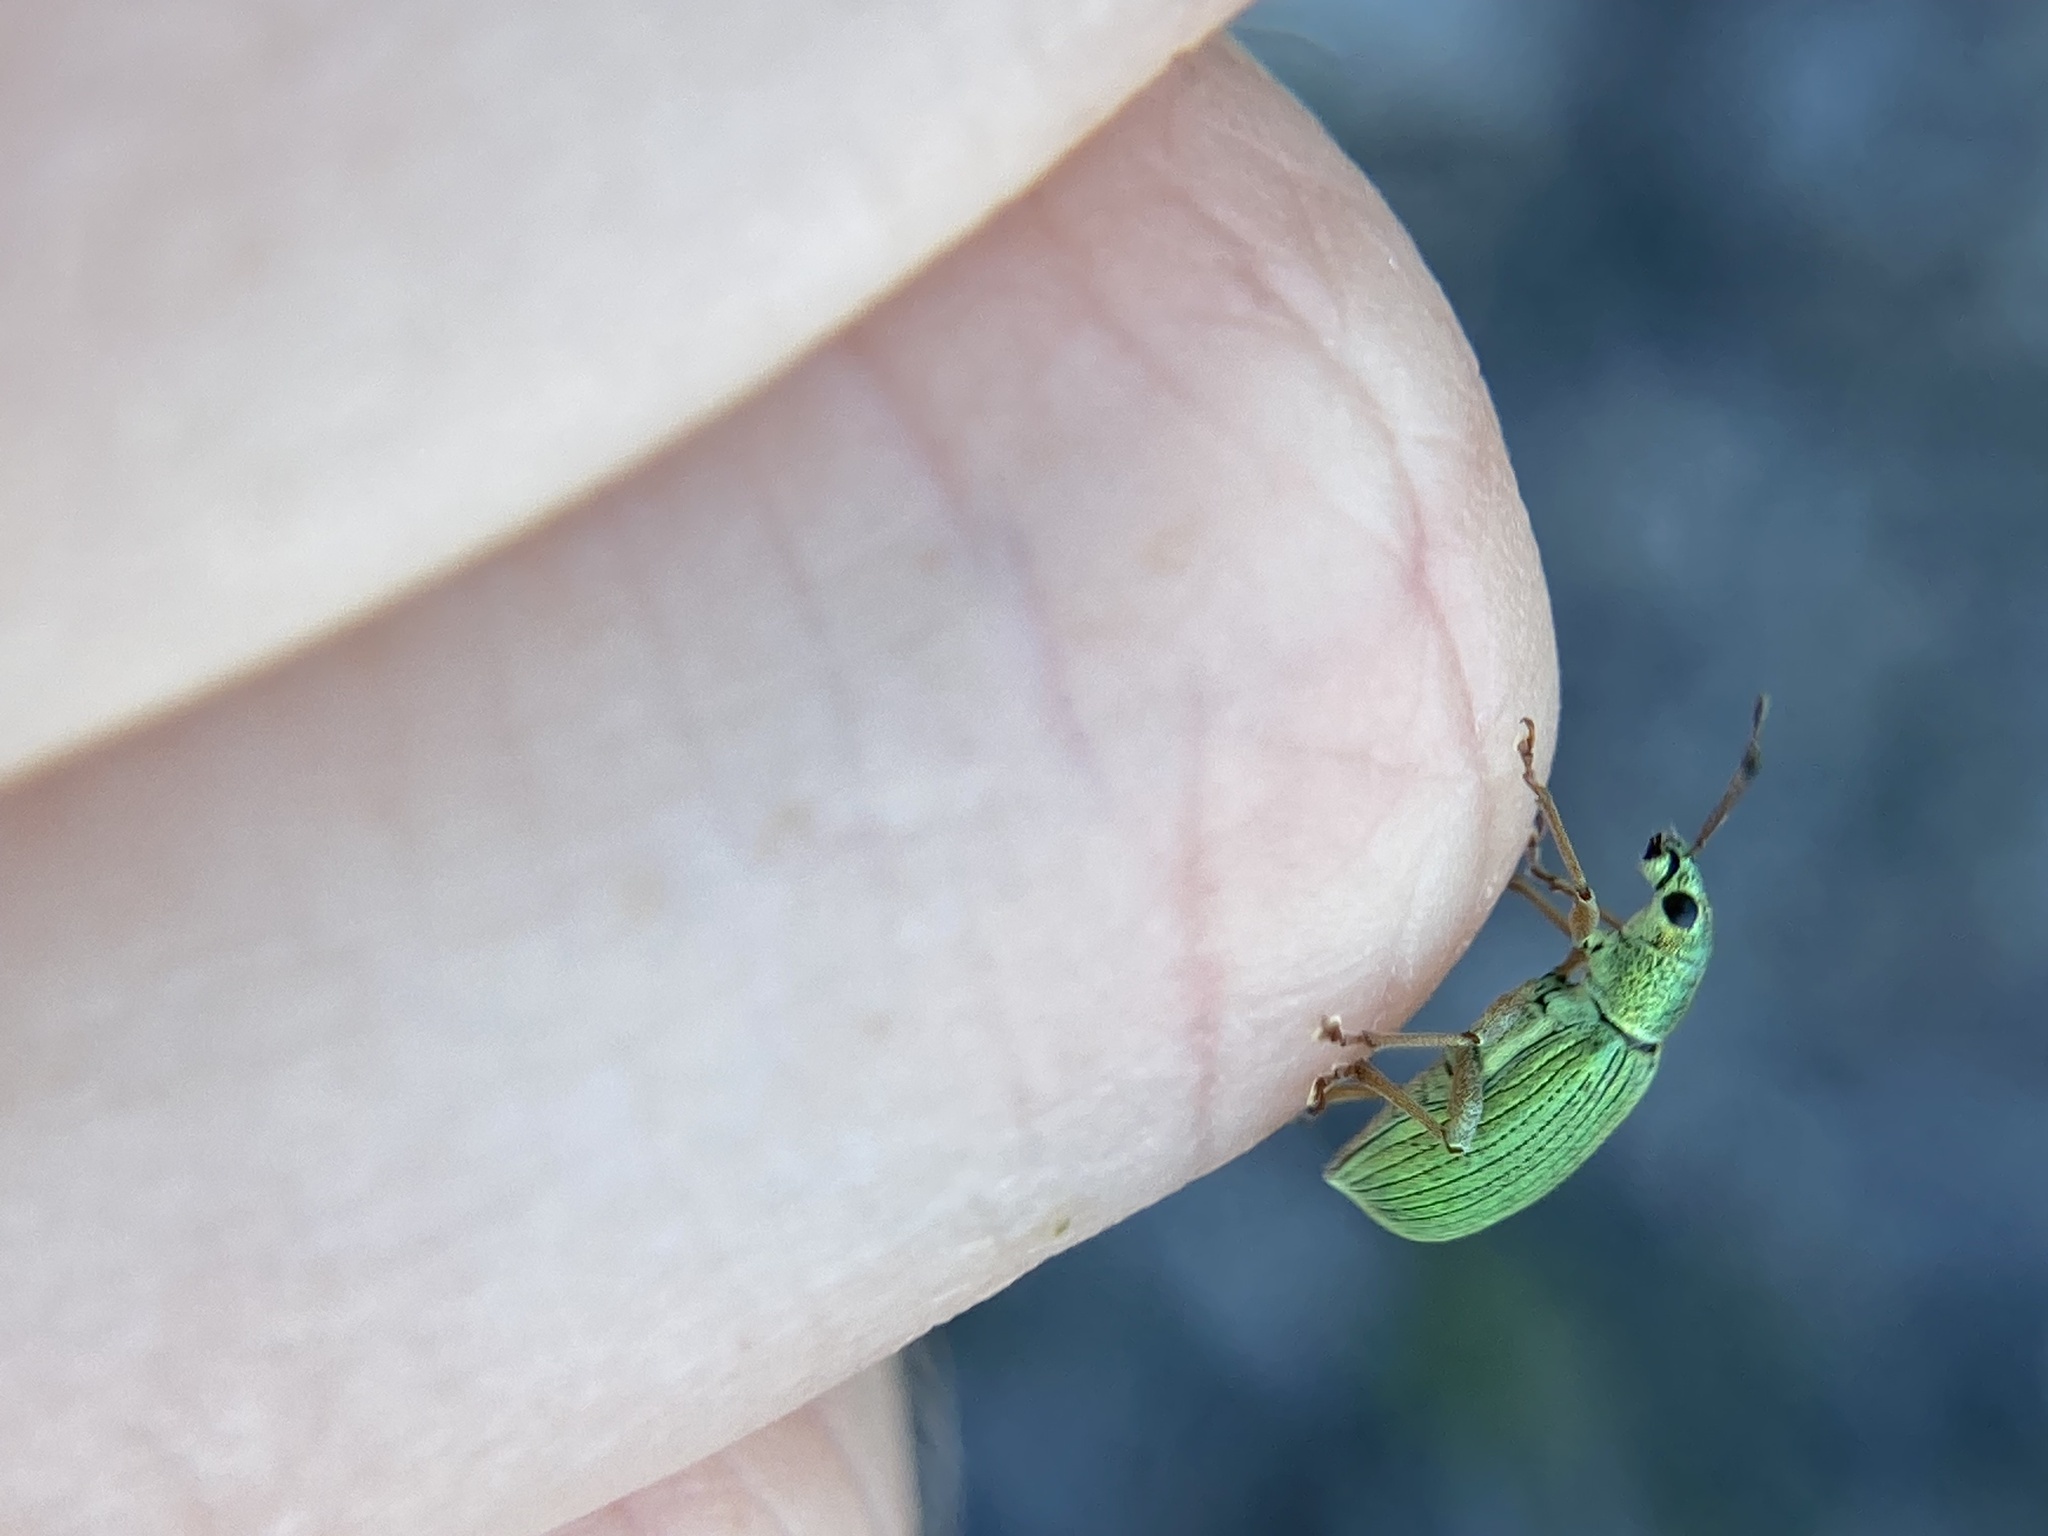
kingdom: Animalia
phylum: Arthropoda
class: Insecta
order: Coleoptera
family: Curculionidae
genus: Polydrusus
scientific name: Polydrusus formosus
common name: Weevil
